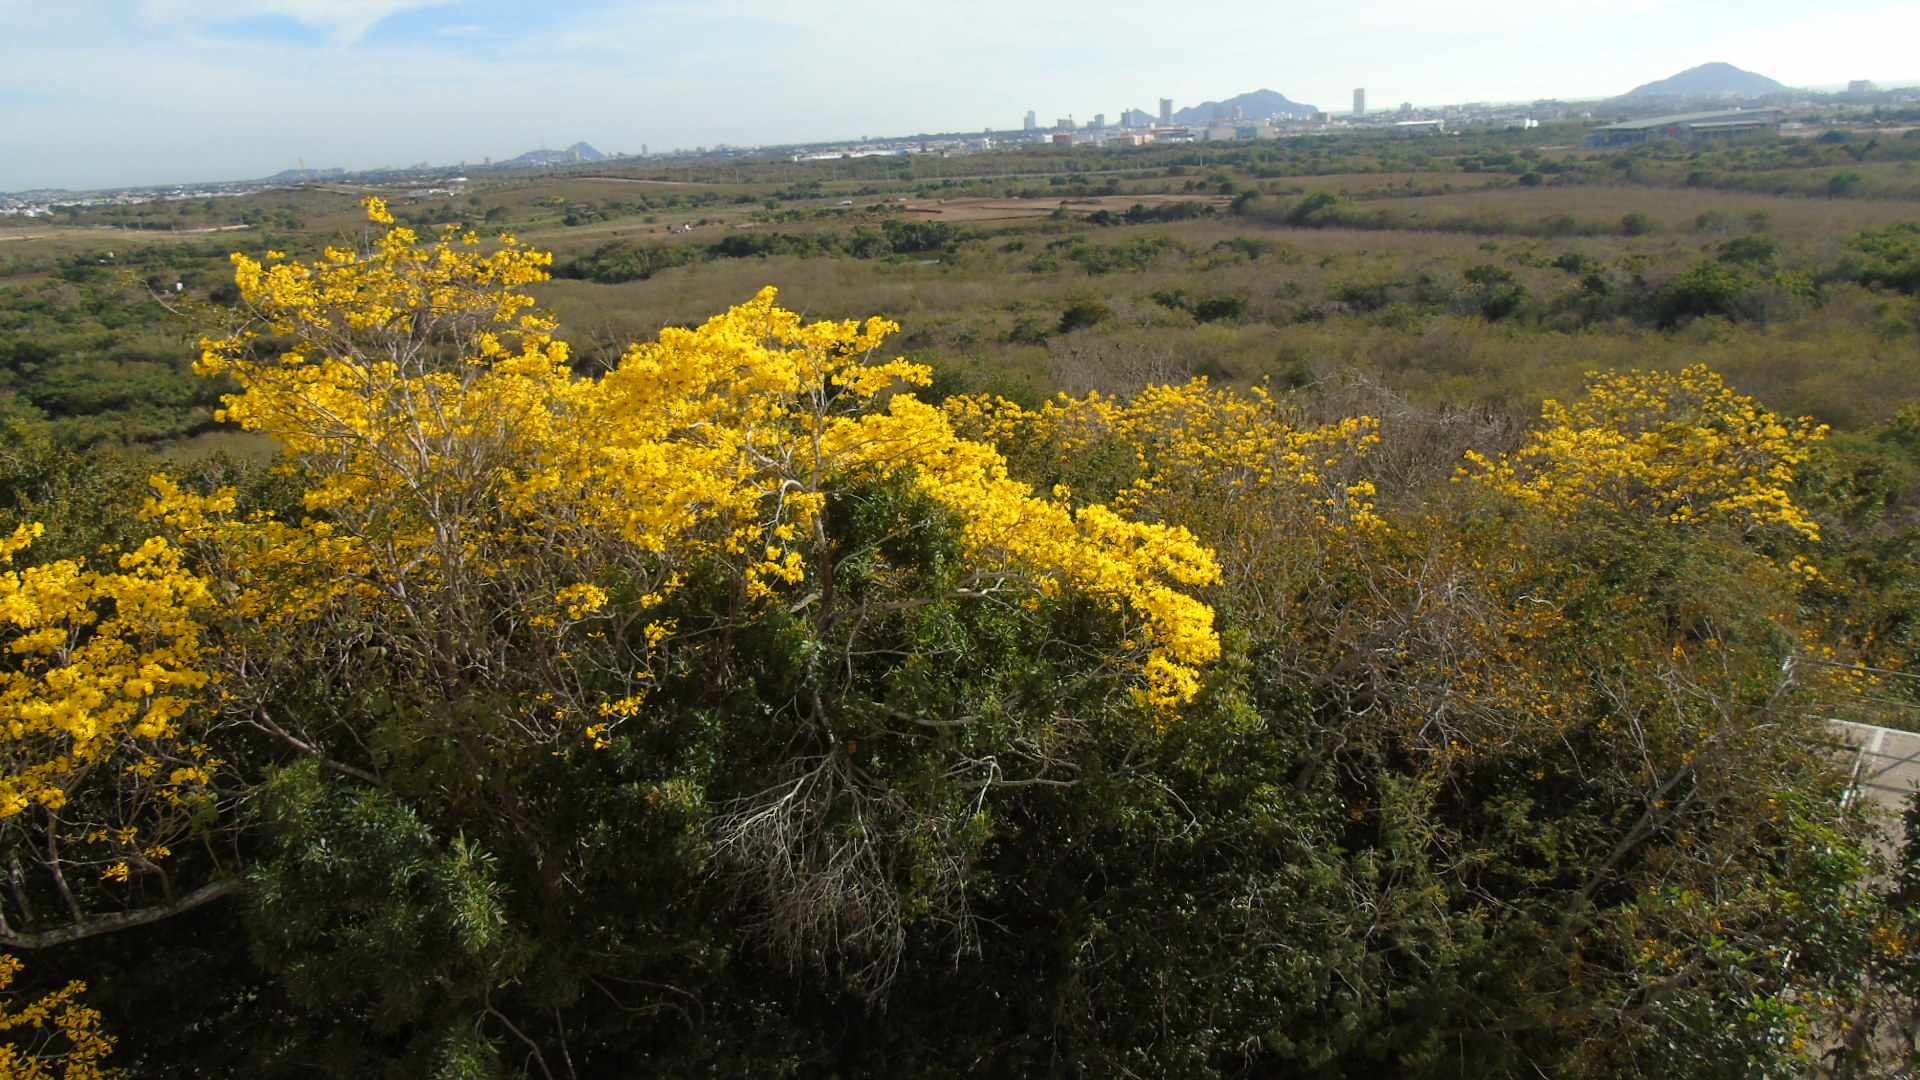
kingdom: Plantae
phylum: Tracheophyta
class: Magnoliopsida
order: Lamiales
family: Bignoniaceae
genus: Handroanthus
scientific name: Handroanthus chrysanthus
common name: Trumpet trees
